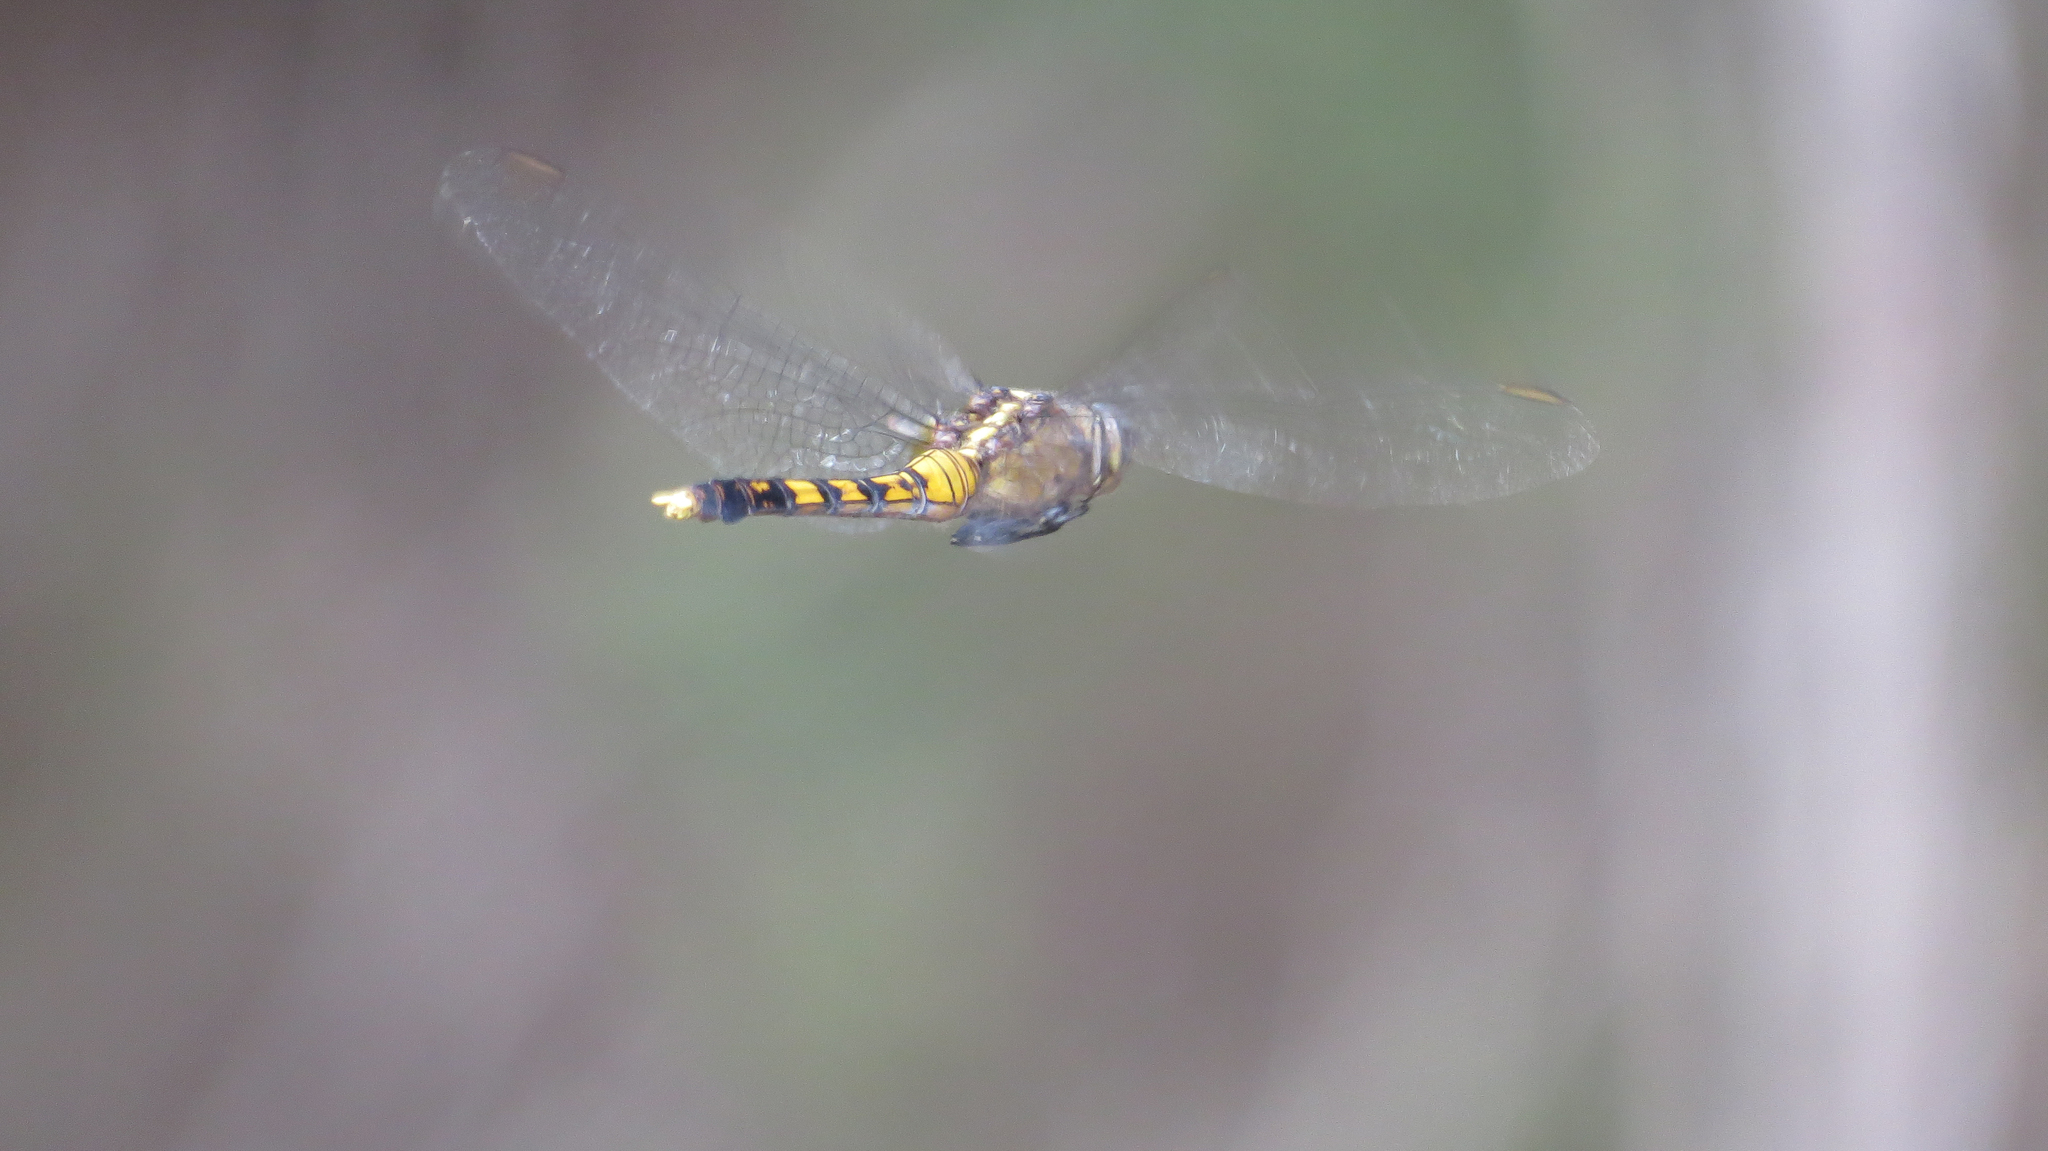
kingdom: Animalia
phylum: Arthropoda
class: Insecta
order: Odonata
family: Libellulidae
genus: Orthetrum
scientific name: Orthetrum boumiera
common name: Brownwater skimmer
